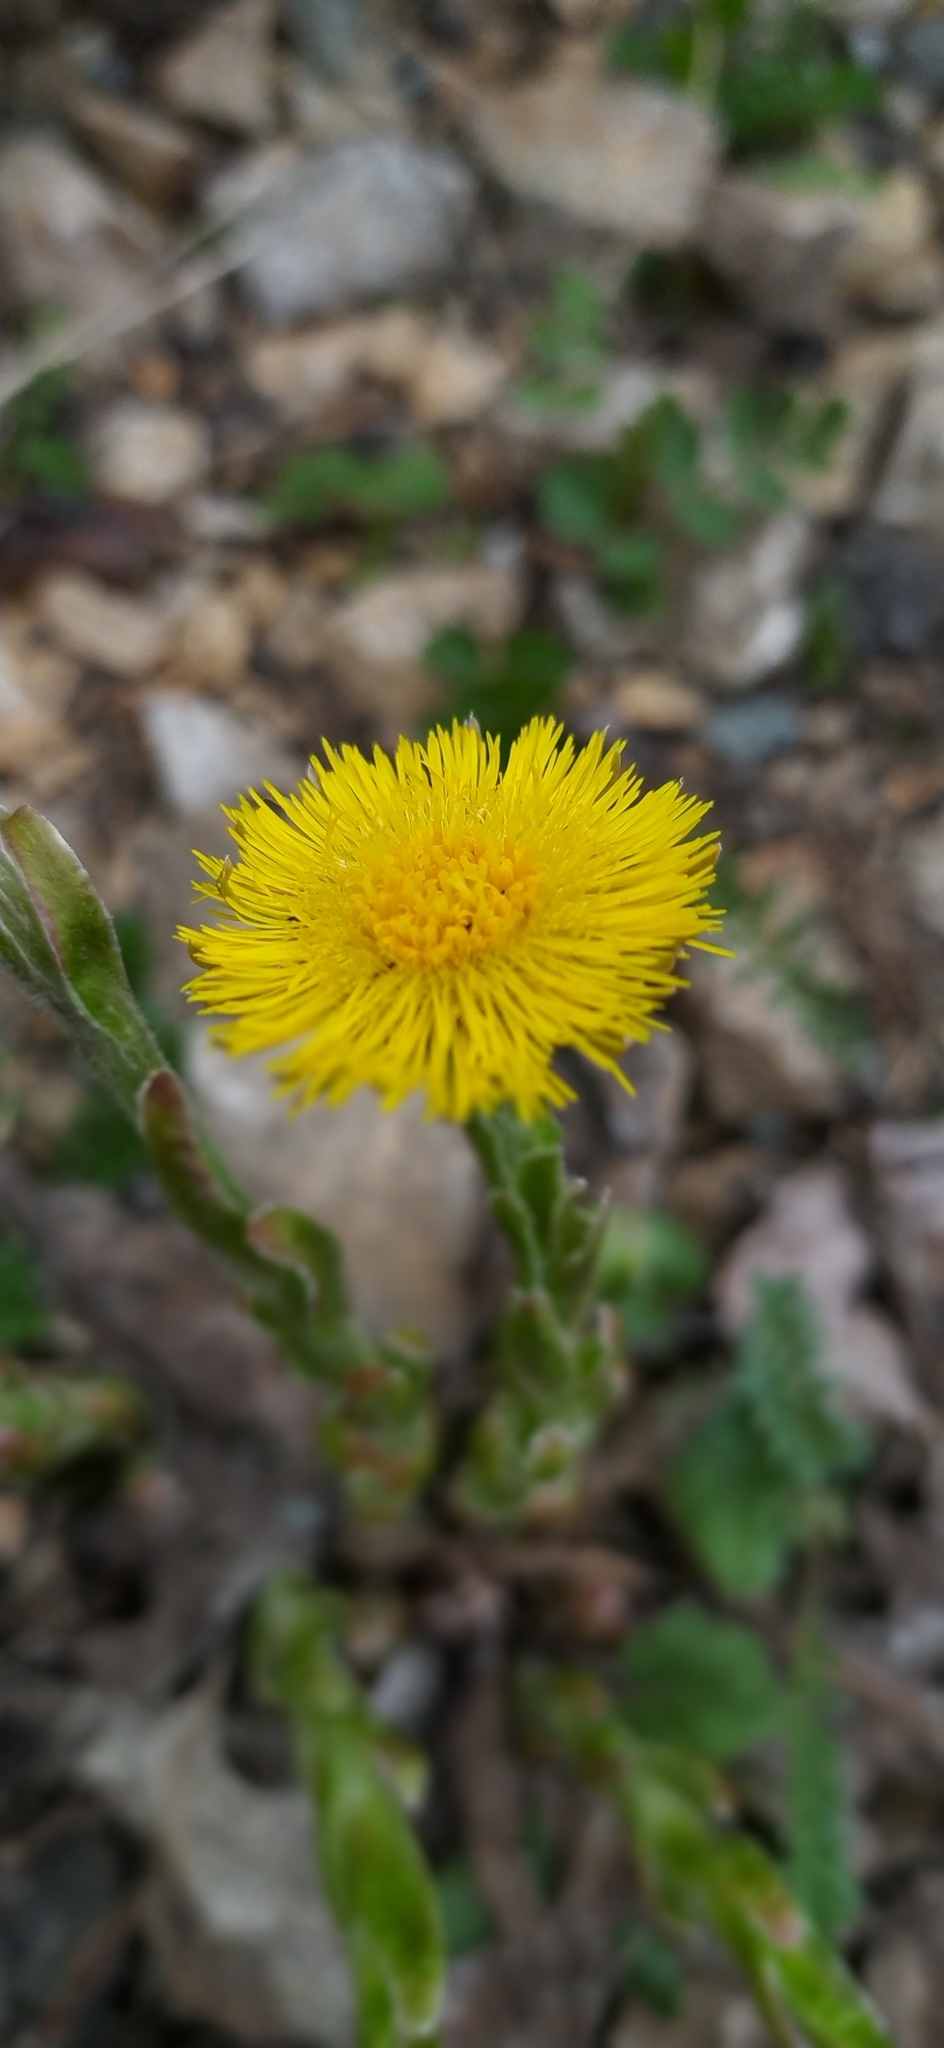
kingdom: Plantae
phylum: Tracheophyta
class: Magnoliopsida
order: Asterales
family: Asteraceae
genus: Tussilago
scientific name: Tussilago farfara
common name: Coltsfoot
